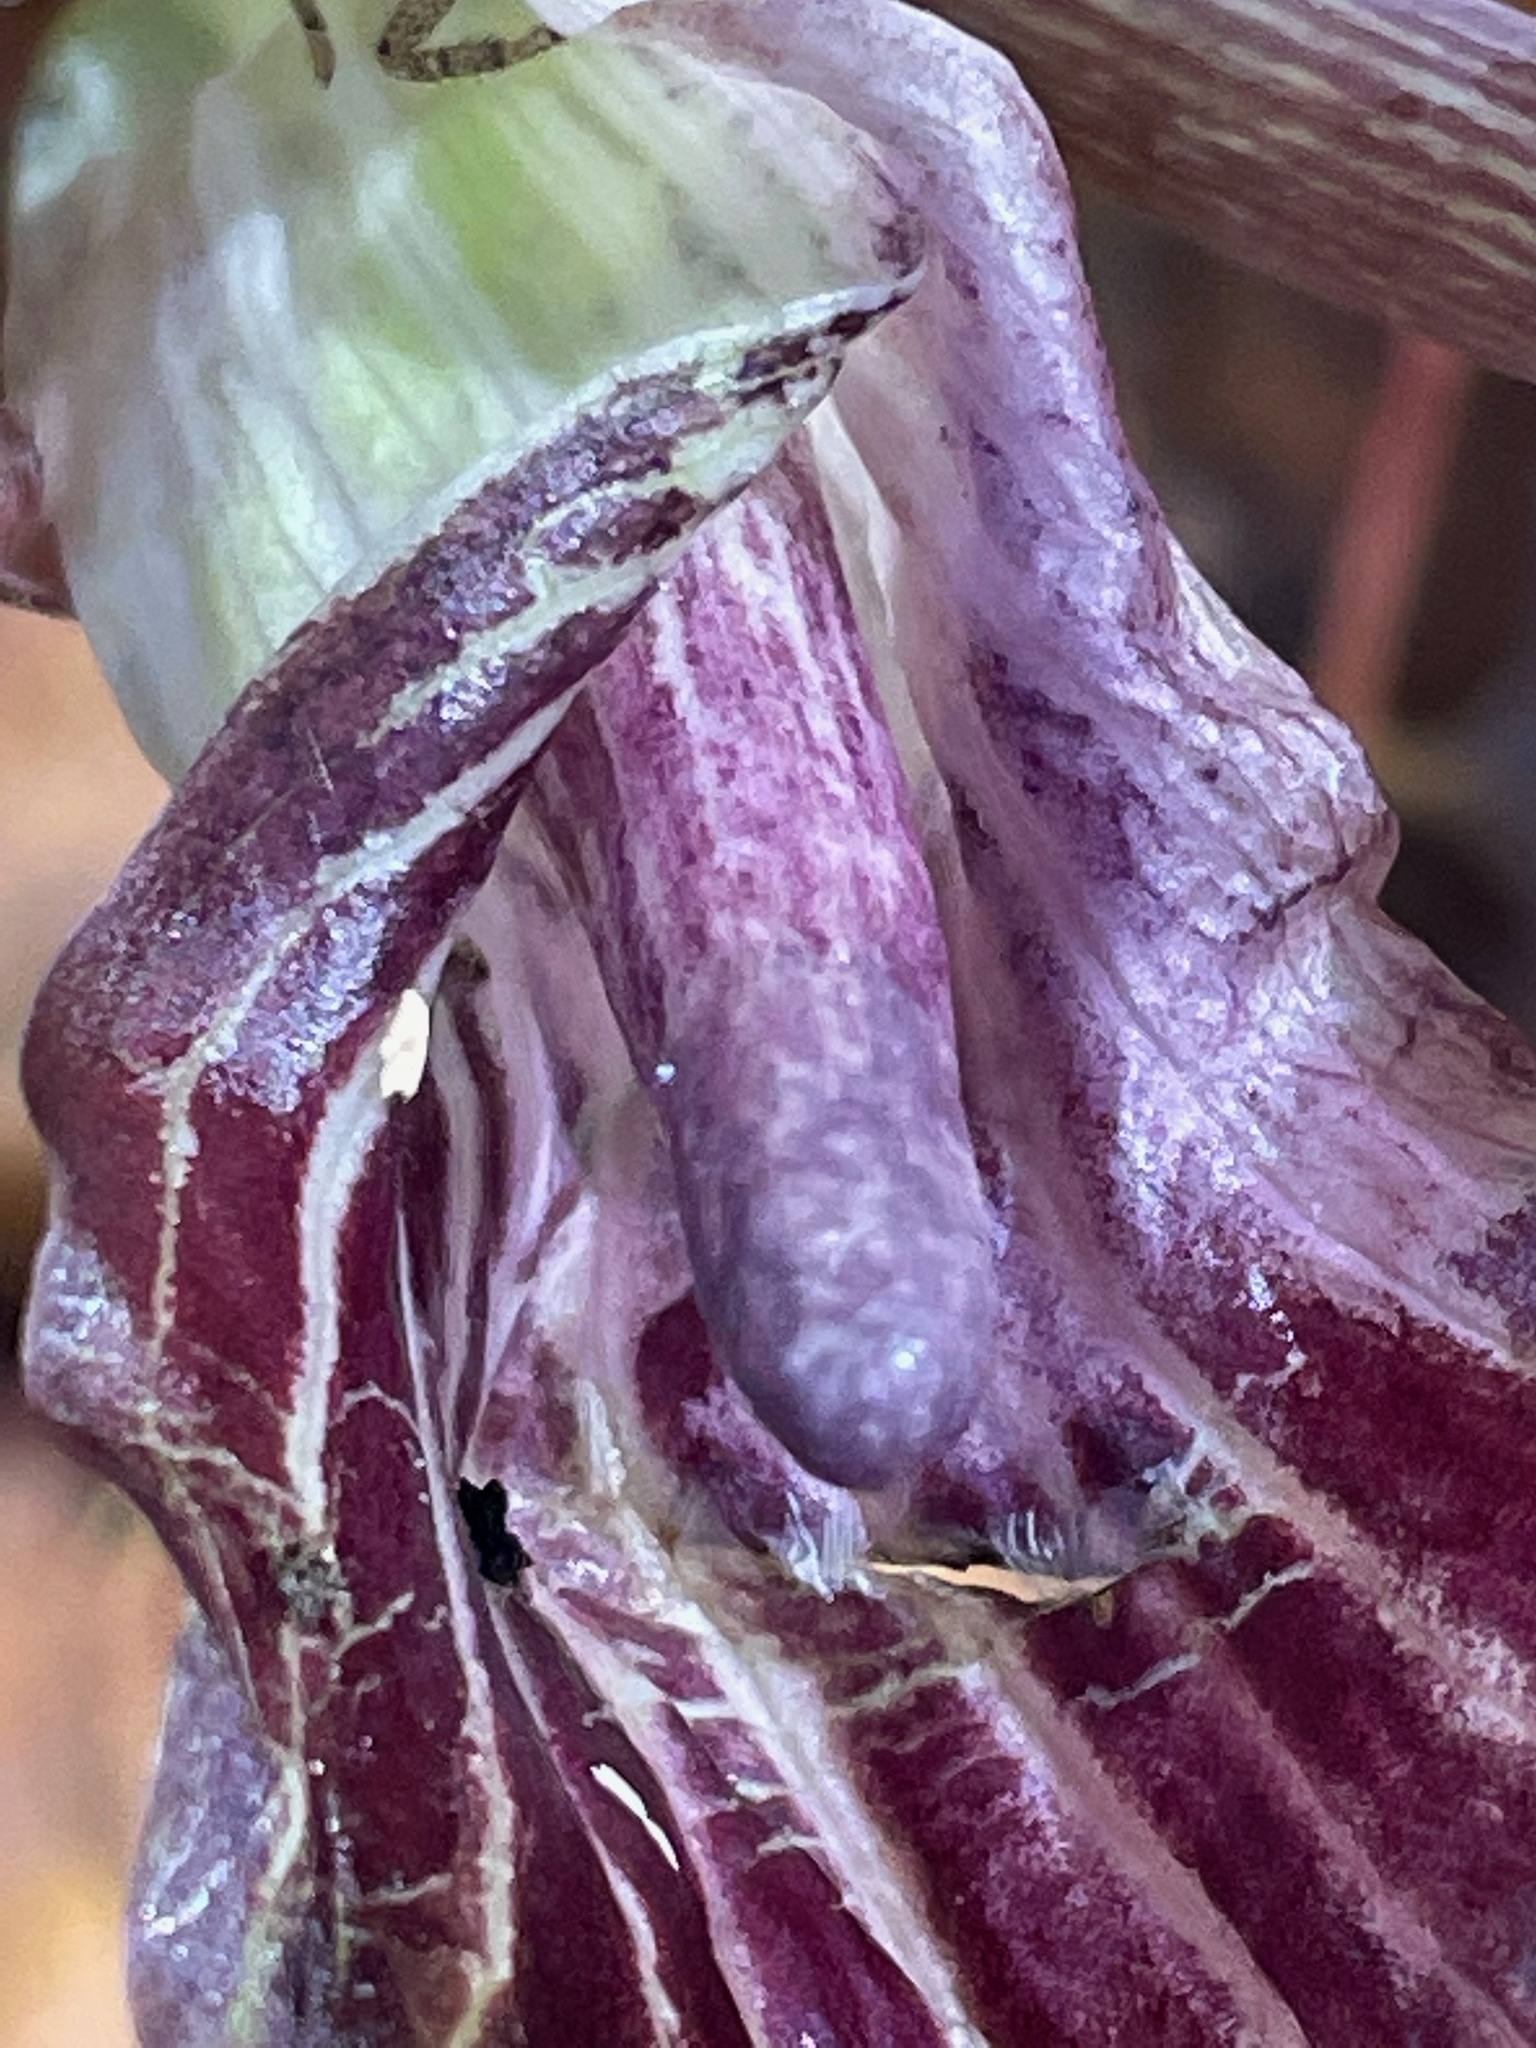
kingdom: Plantae
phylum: Tracheophyta
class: Liliopsida
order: Alismatales
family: Araceae
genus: Arisaema
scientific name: Arisaema triphyllum
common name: Jack-in-the-pulpit
